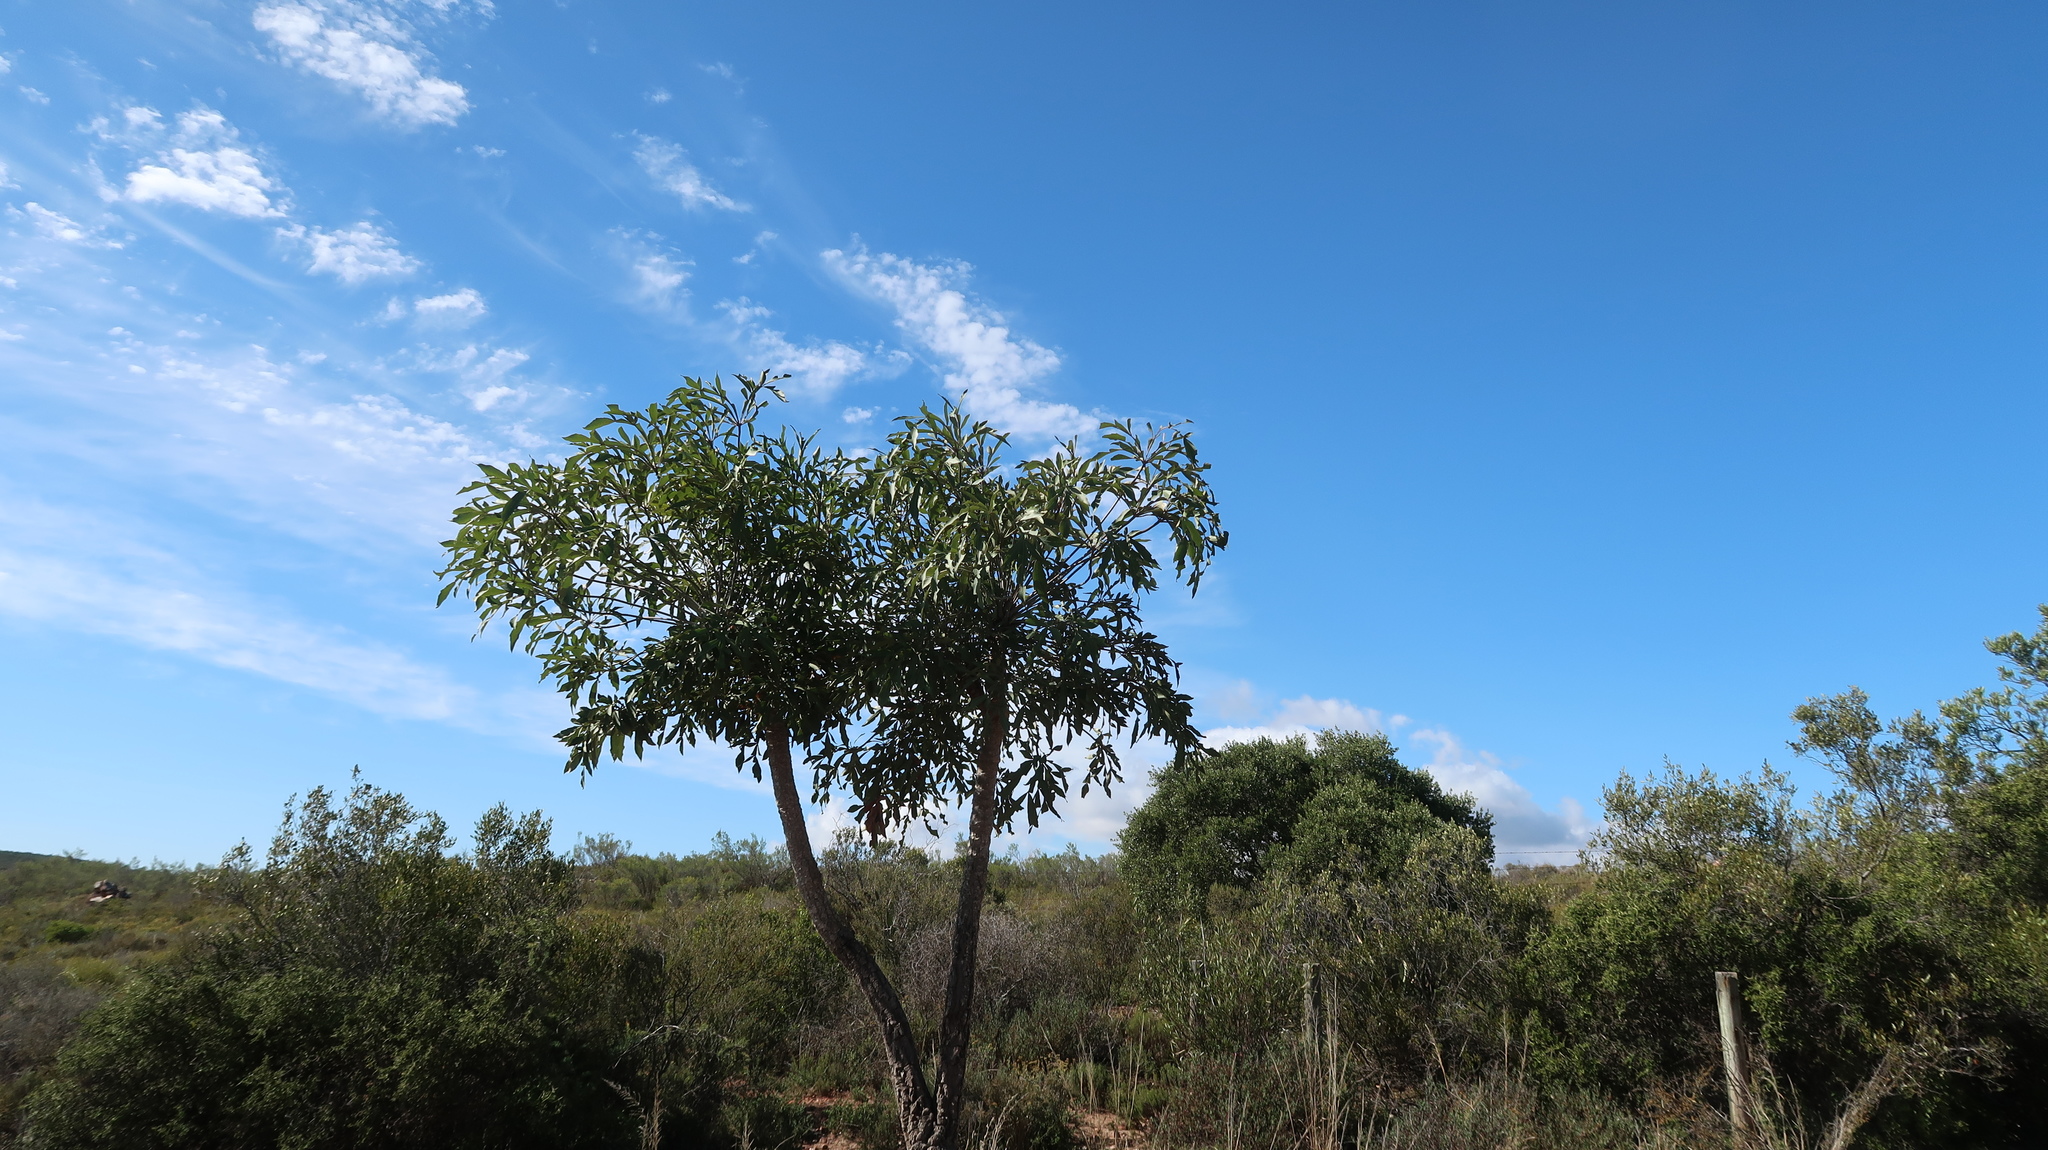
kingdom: Plantae
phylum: Tracheophyta
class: Magnoliopsida
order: Apiales
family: Araliaceae
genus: Cussonia
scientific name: Cussonia spicata
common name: Common cabbagetree
